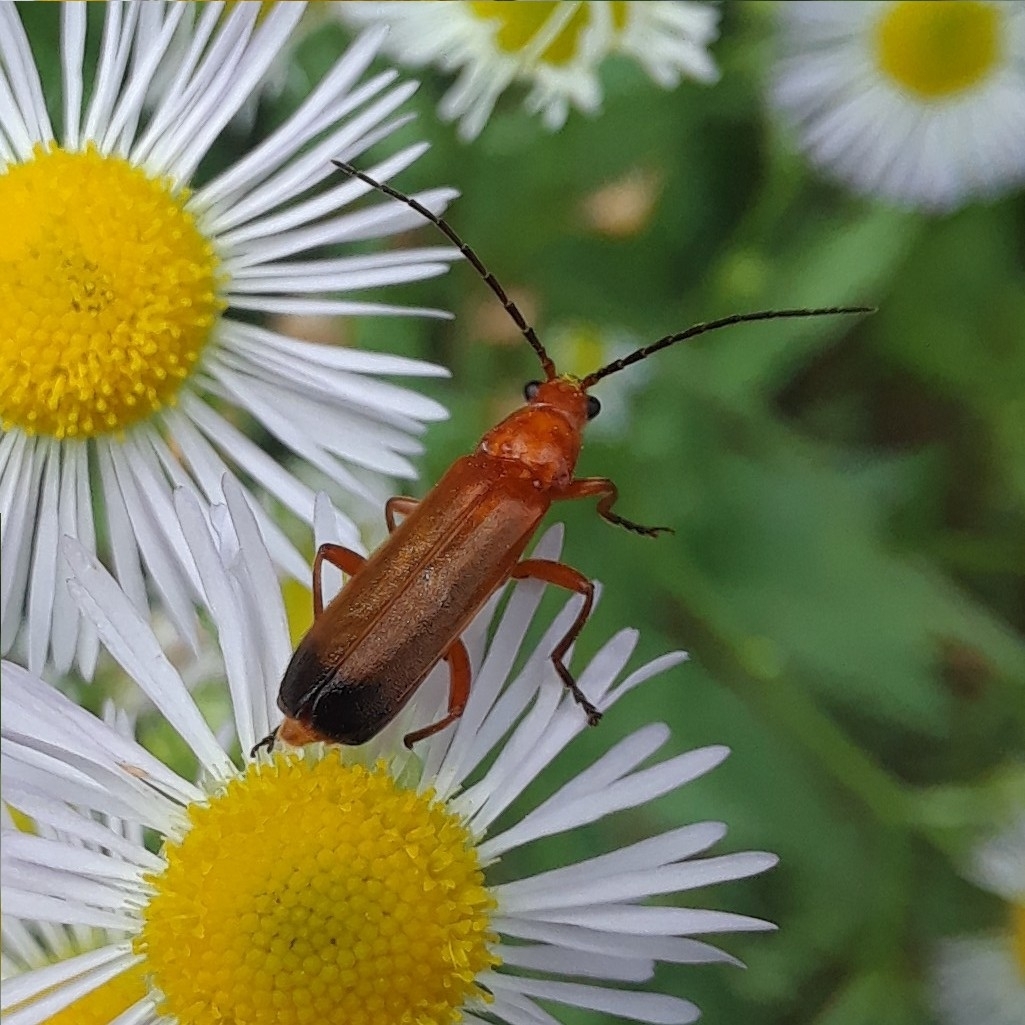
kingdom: Animalia
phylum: Arthropoda
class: Insecta
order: Coleoptera
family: Cantharidae
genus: Rhagonycha
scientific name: Rhagonycha fulva
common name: Common red soldier beetle
